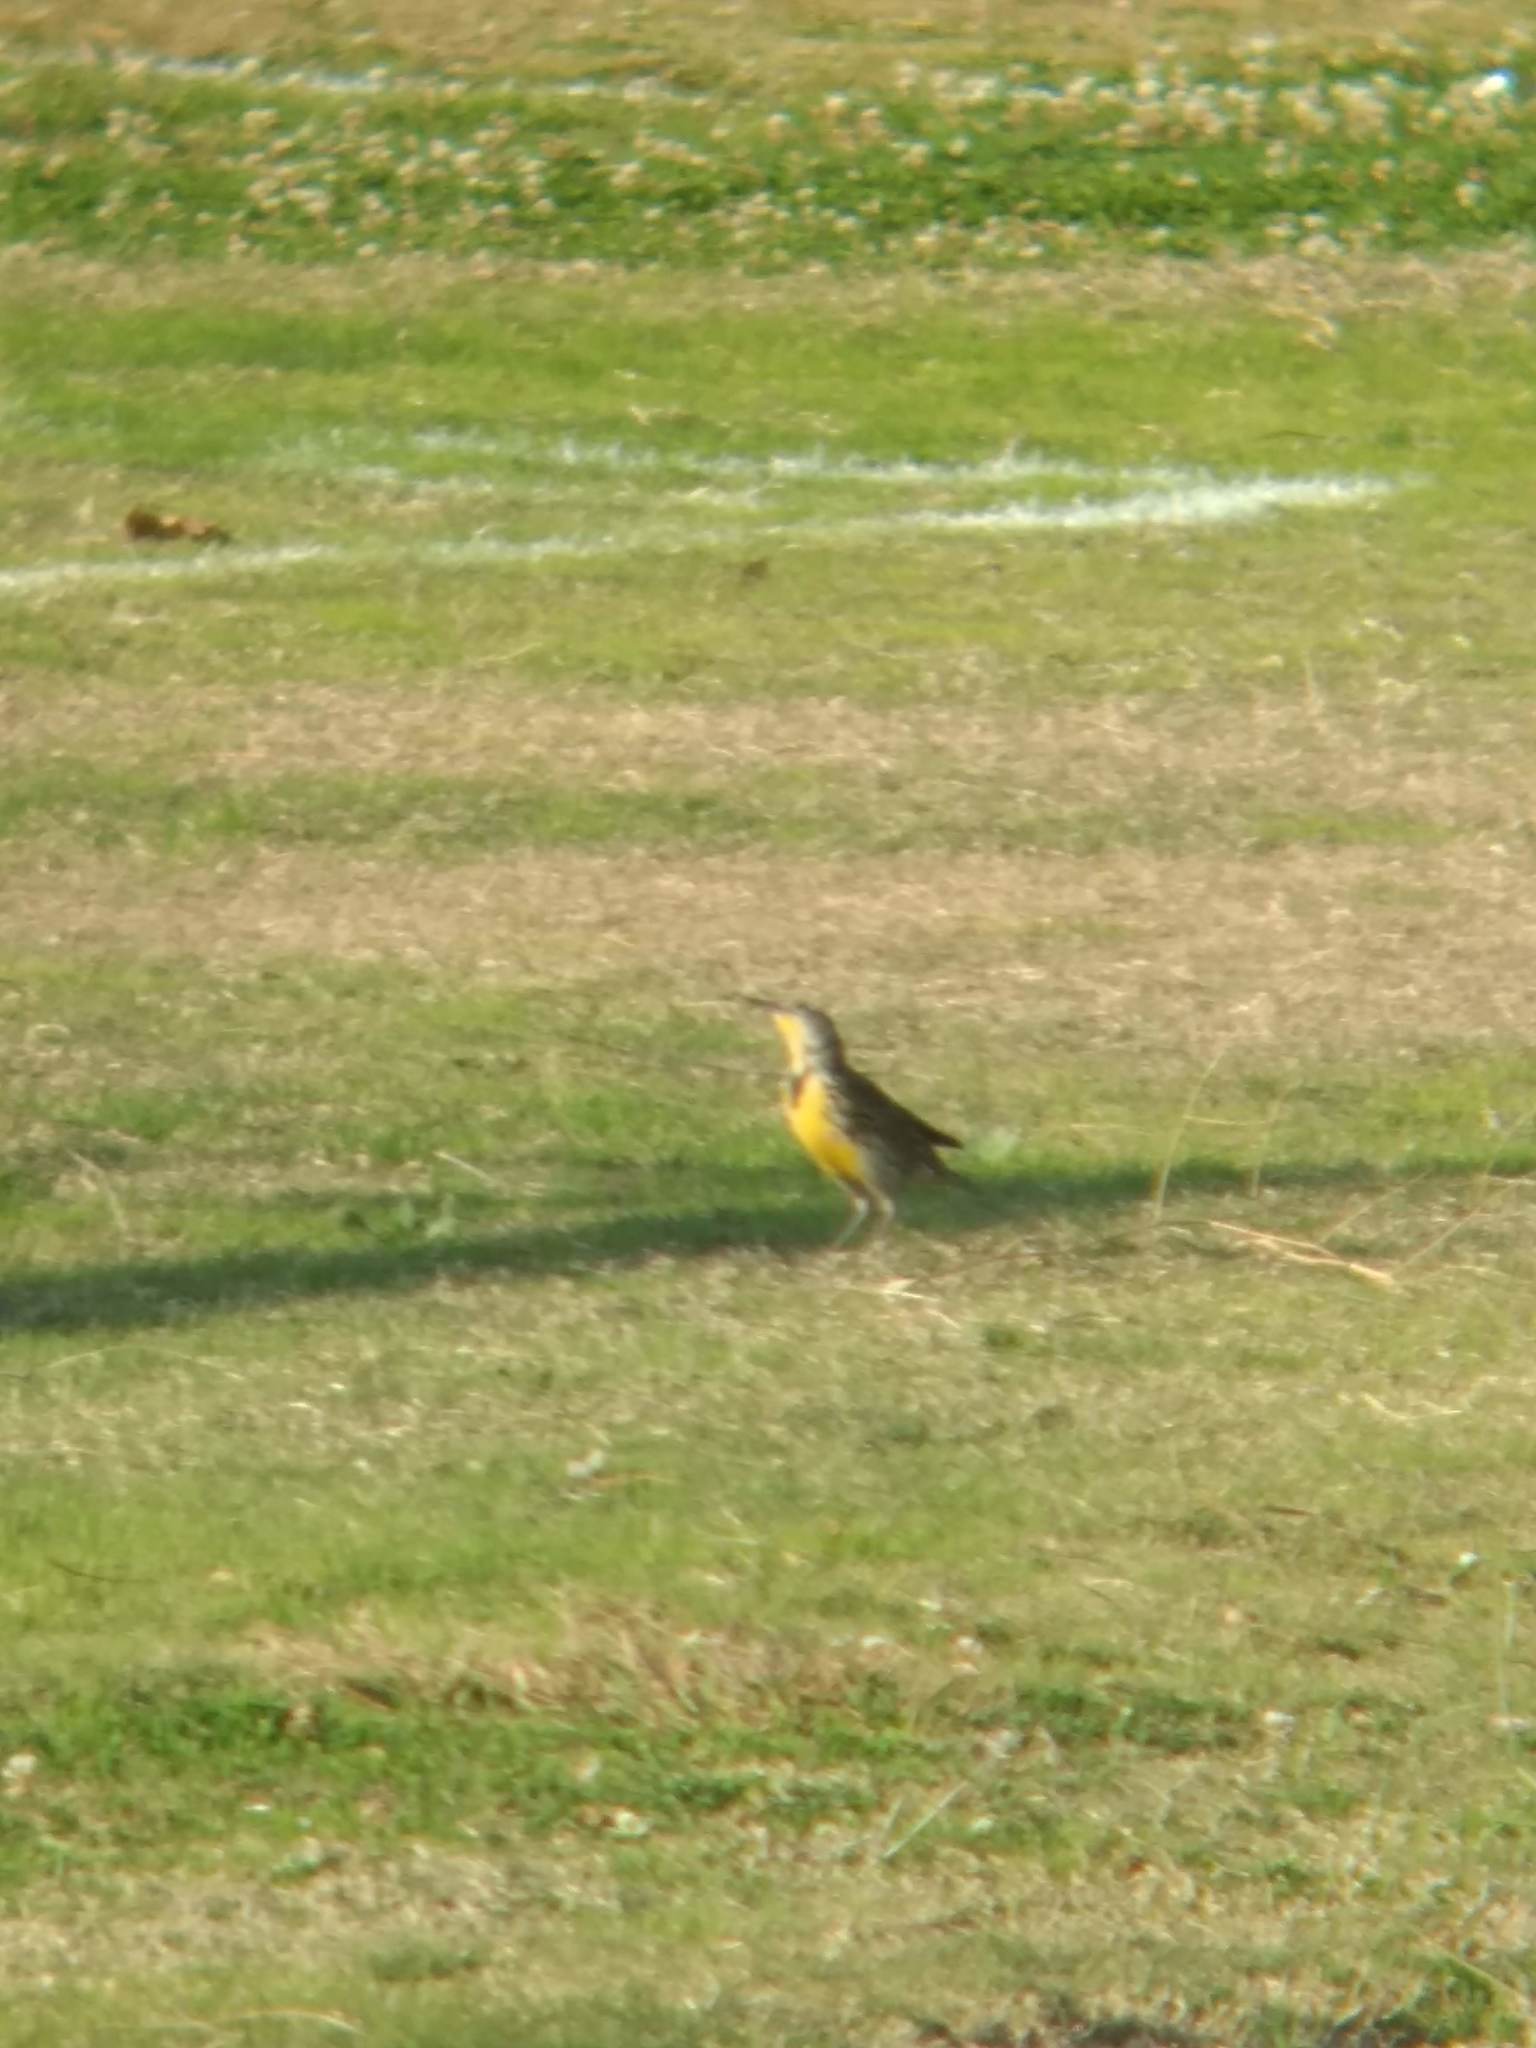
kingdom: Animalia
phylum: Chordata
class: Aves
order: Passeriformes
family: Icteridae
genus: Sturnella
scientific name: Sturnella neglecta
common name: Western meadowlark
